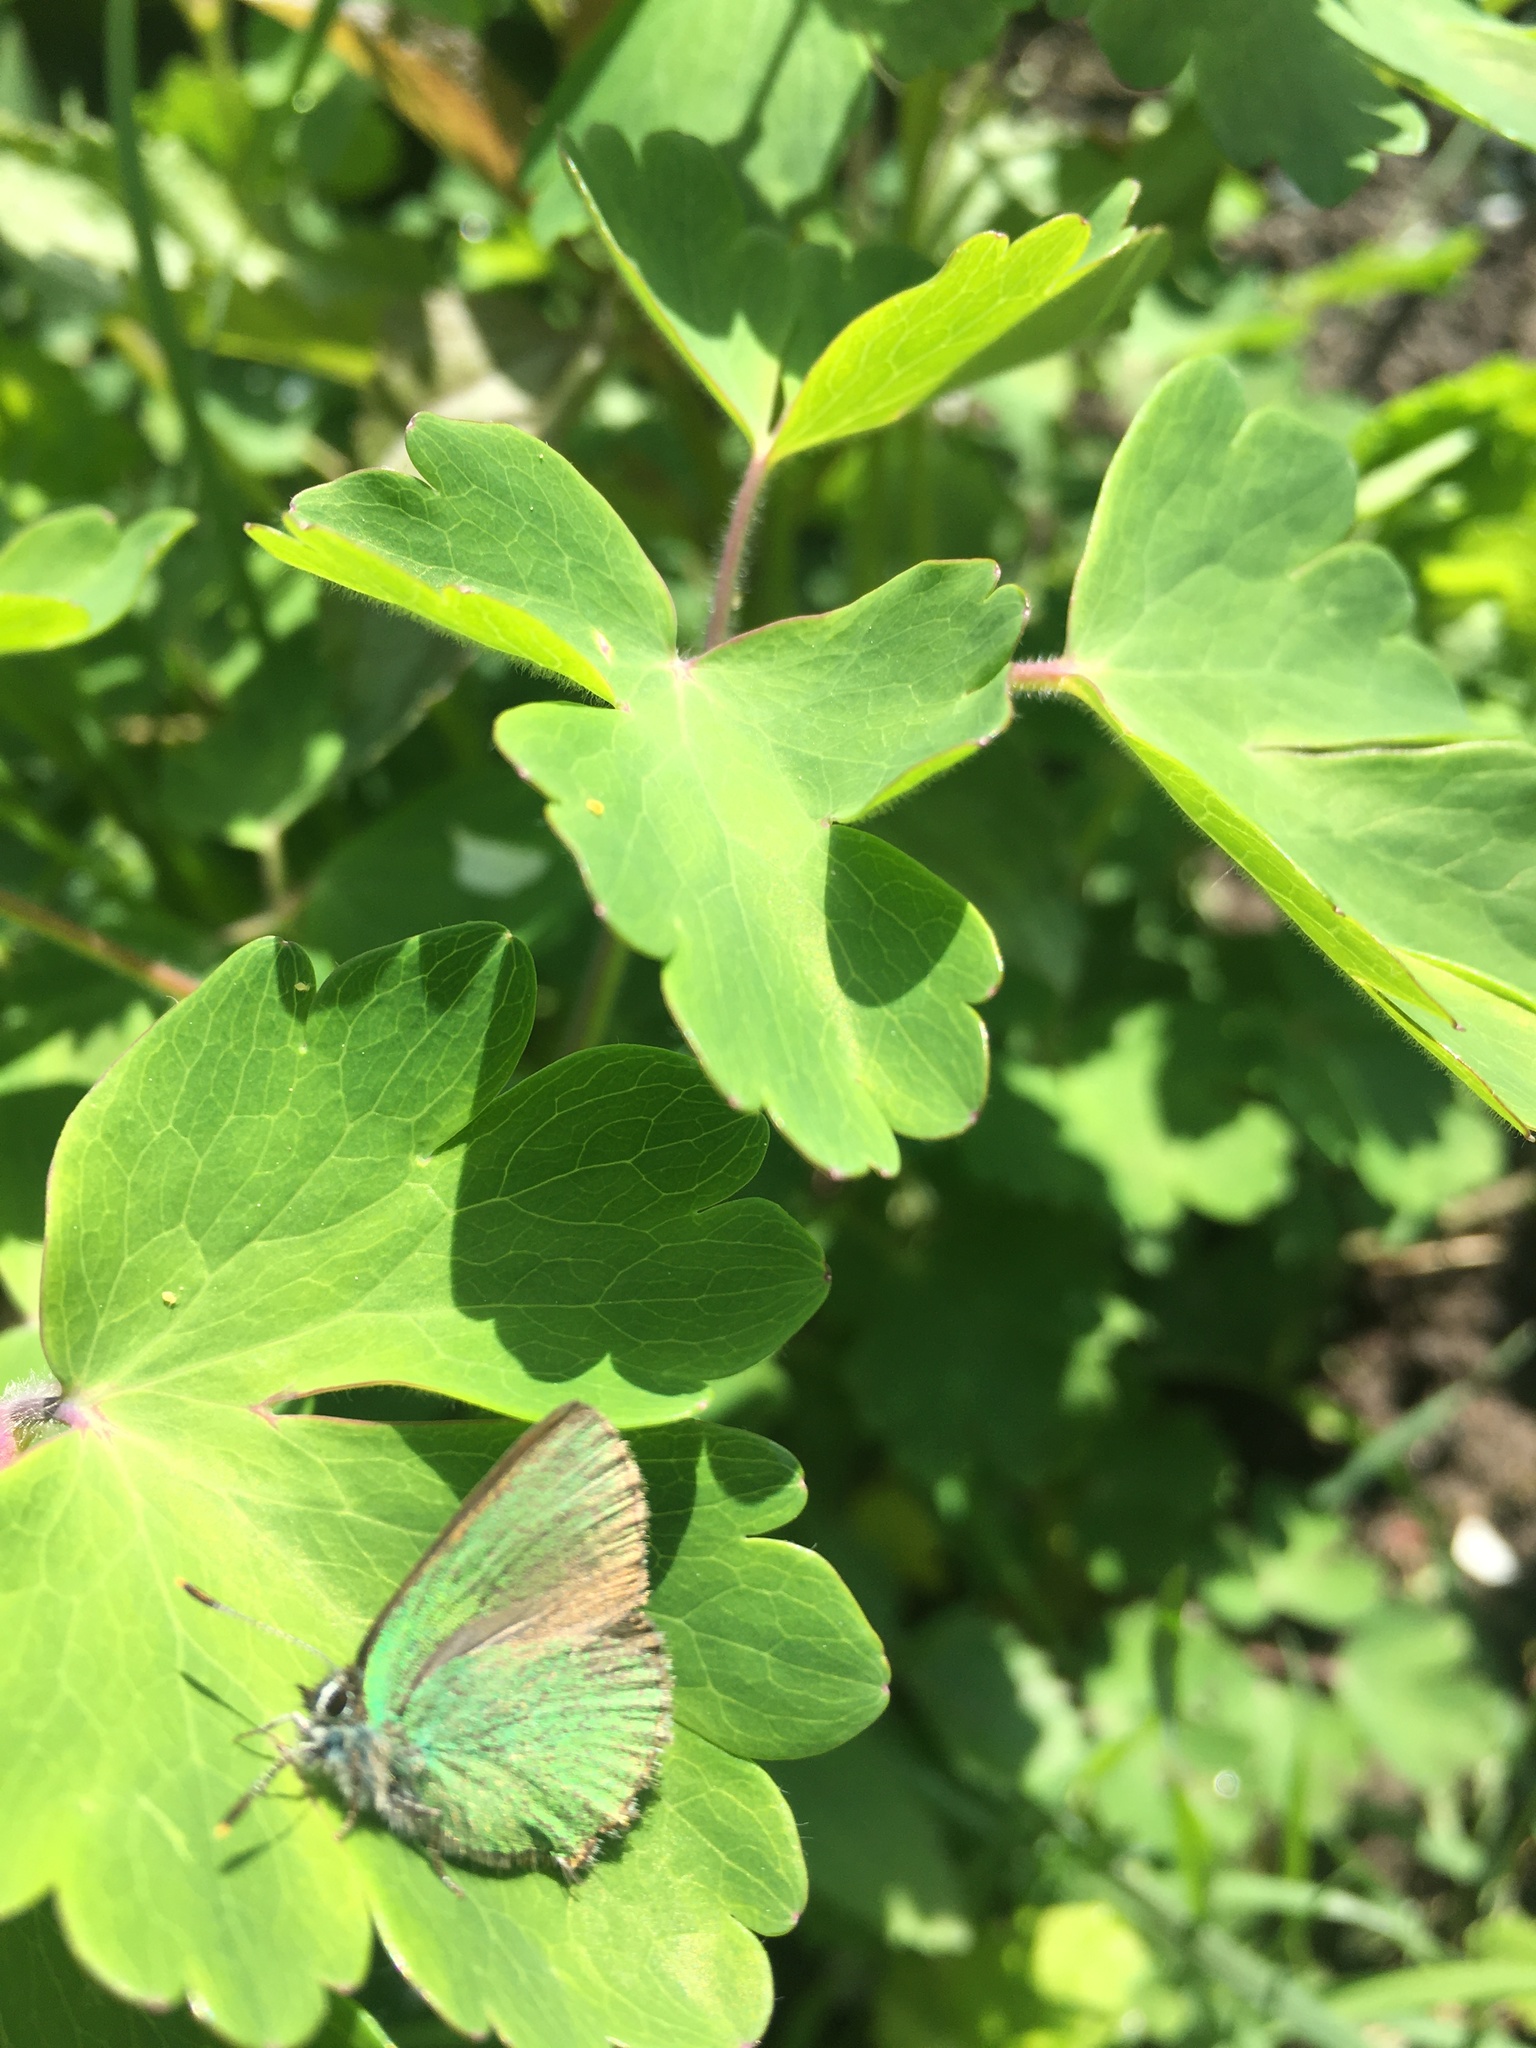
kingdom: Animalia
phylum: Arthropoda
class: Insecta
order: Lepidoptera
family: Lycaenidae
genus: Callophrys
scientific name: Callophrys rubi
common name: Green hairstreak
